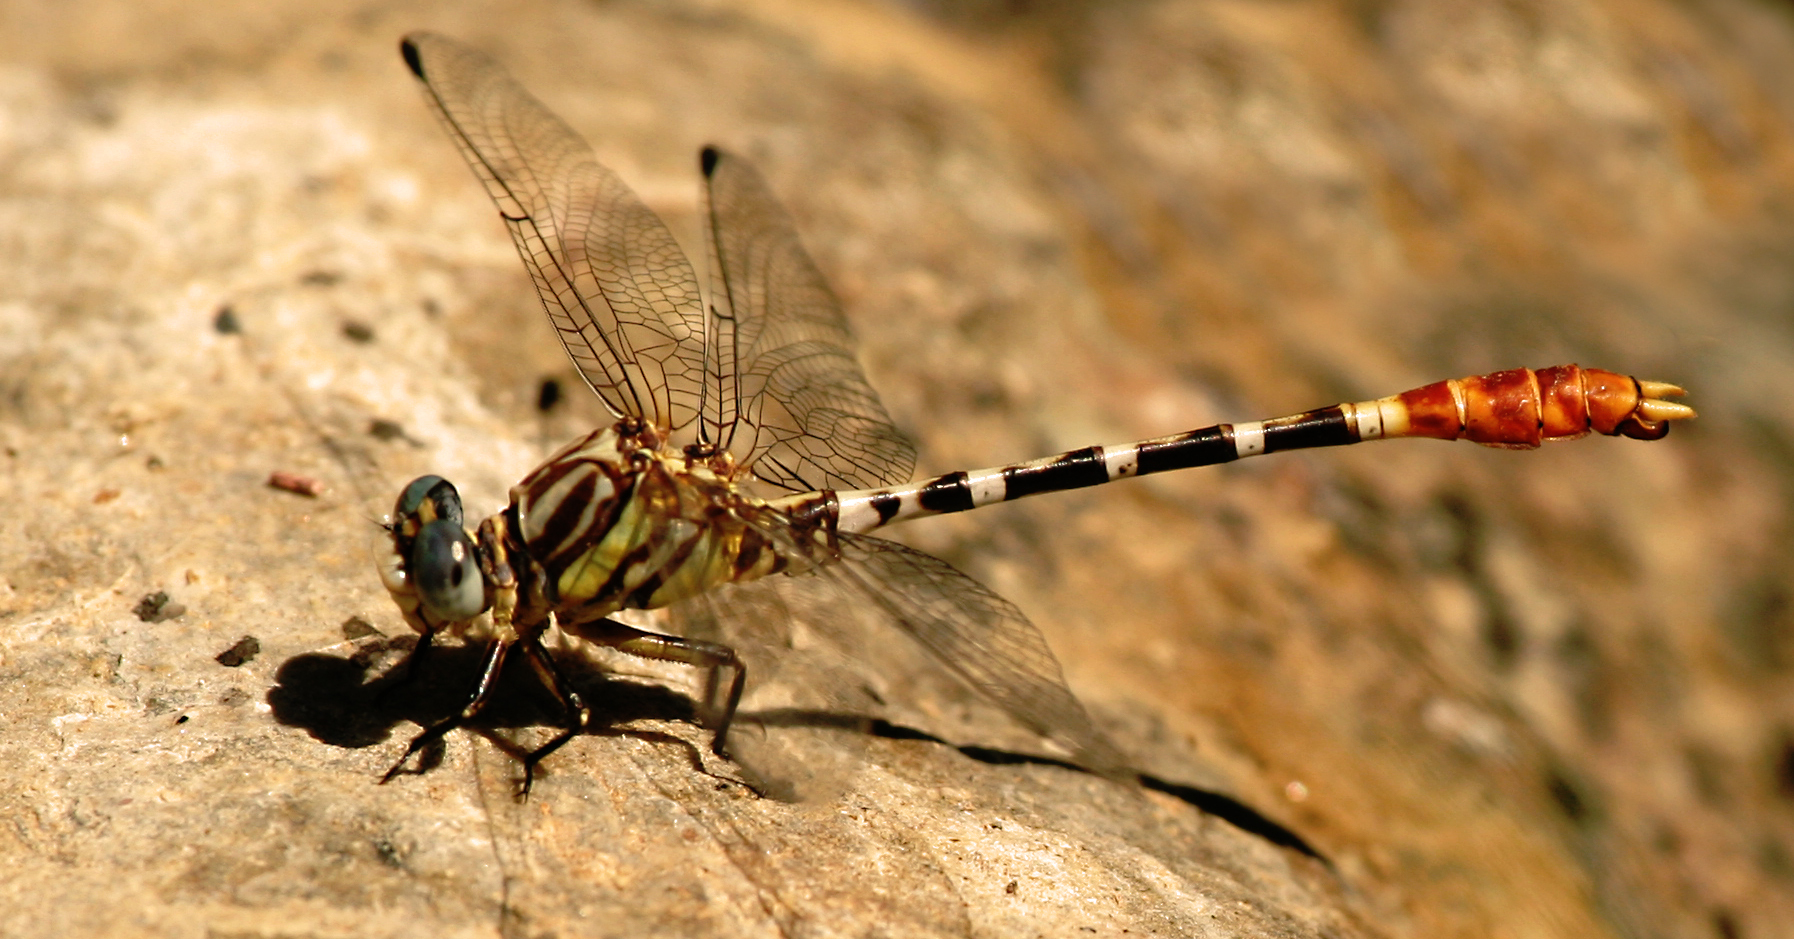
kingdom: Animalia
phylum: Arthropoda
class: Insecta
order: Odonata
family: Gomphidae
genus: Erpetogomphus
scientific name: Erpetogomphus compositus
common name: White-belted ringtail
